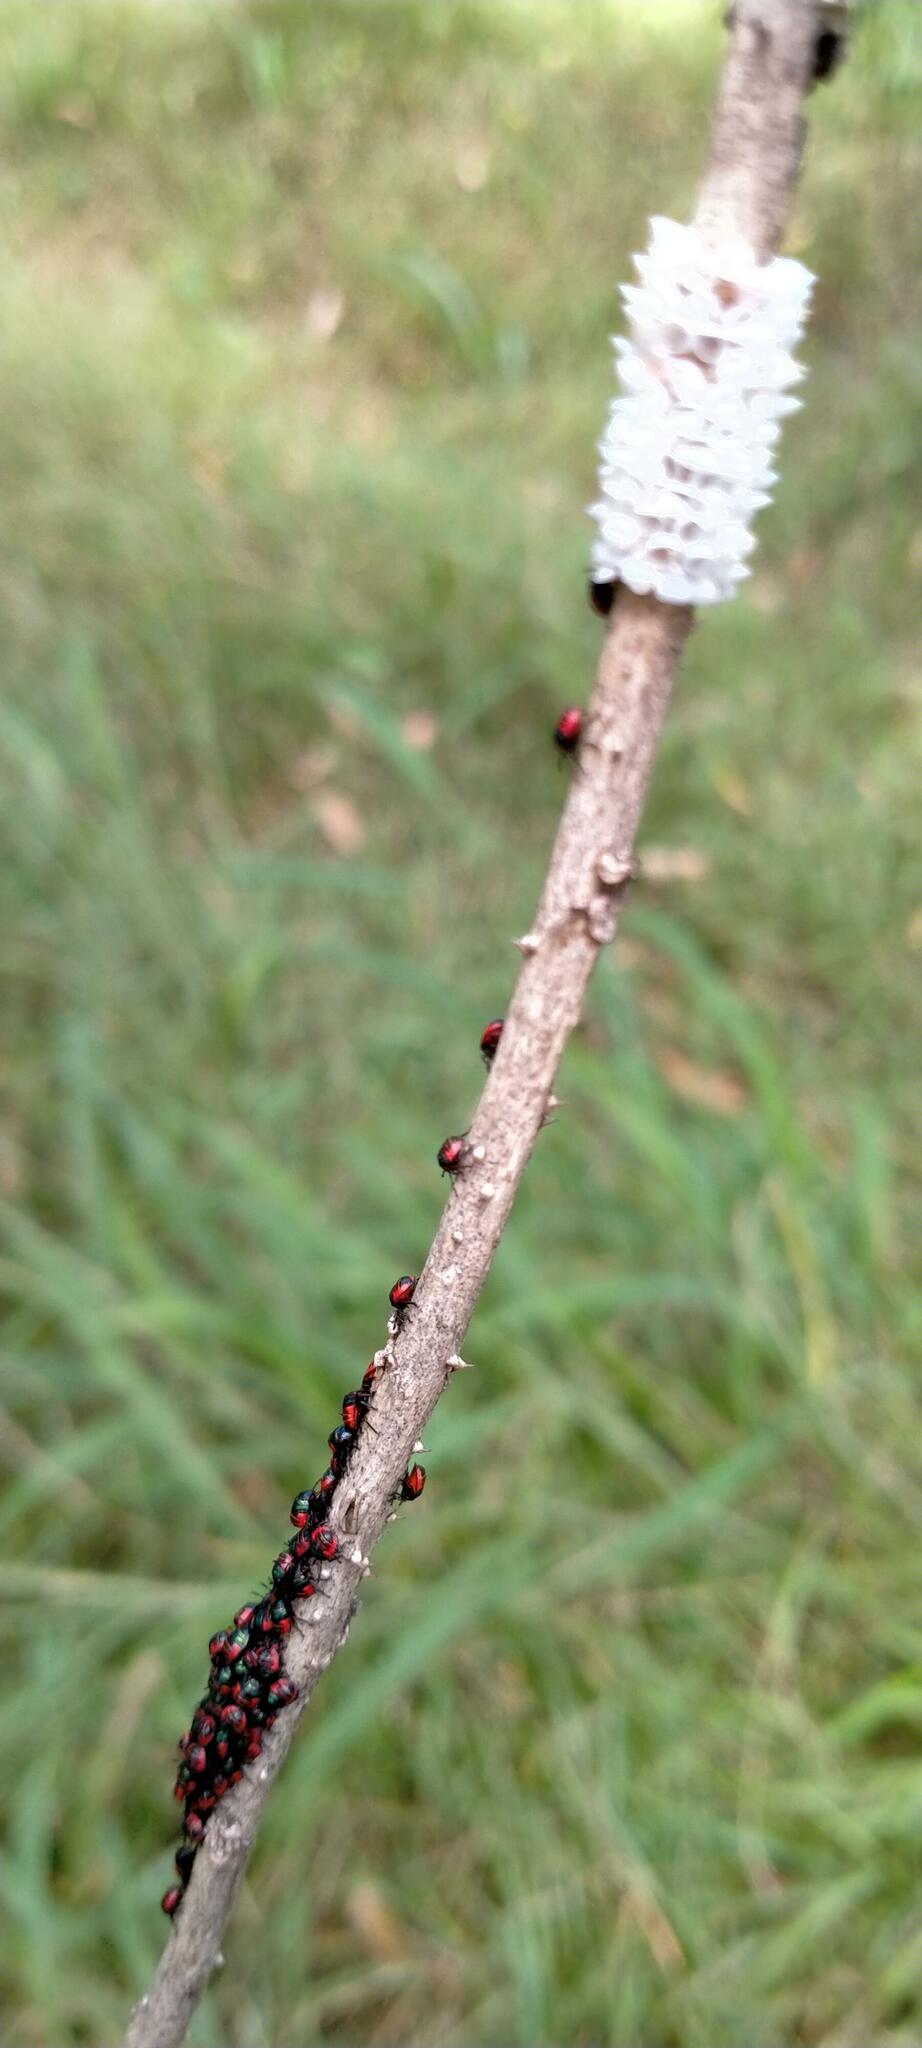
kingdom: Animalia
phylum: Arthropoda
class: Insecta
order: Hemiptera
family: Scutelleridae
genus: Tectocoris
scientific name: Tectocoris diophthalmus
